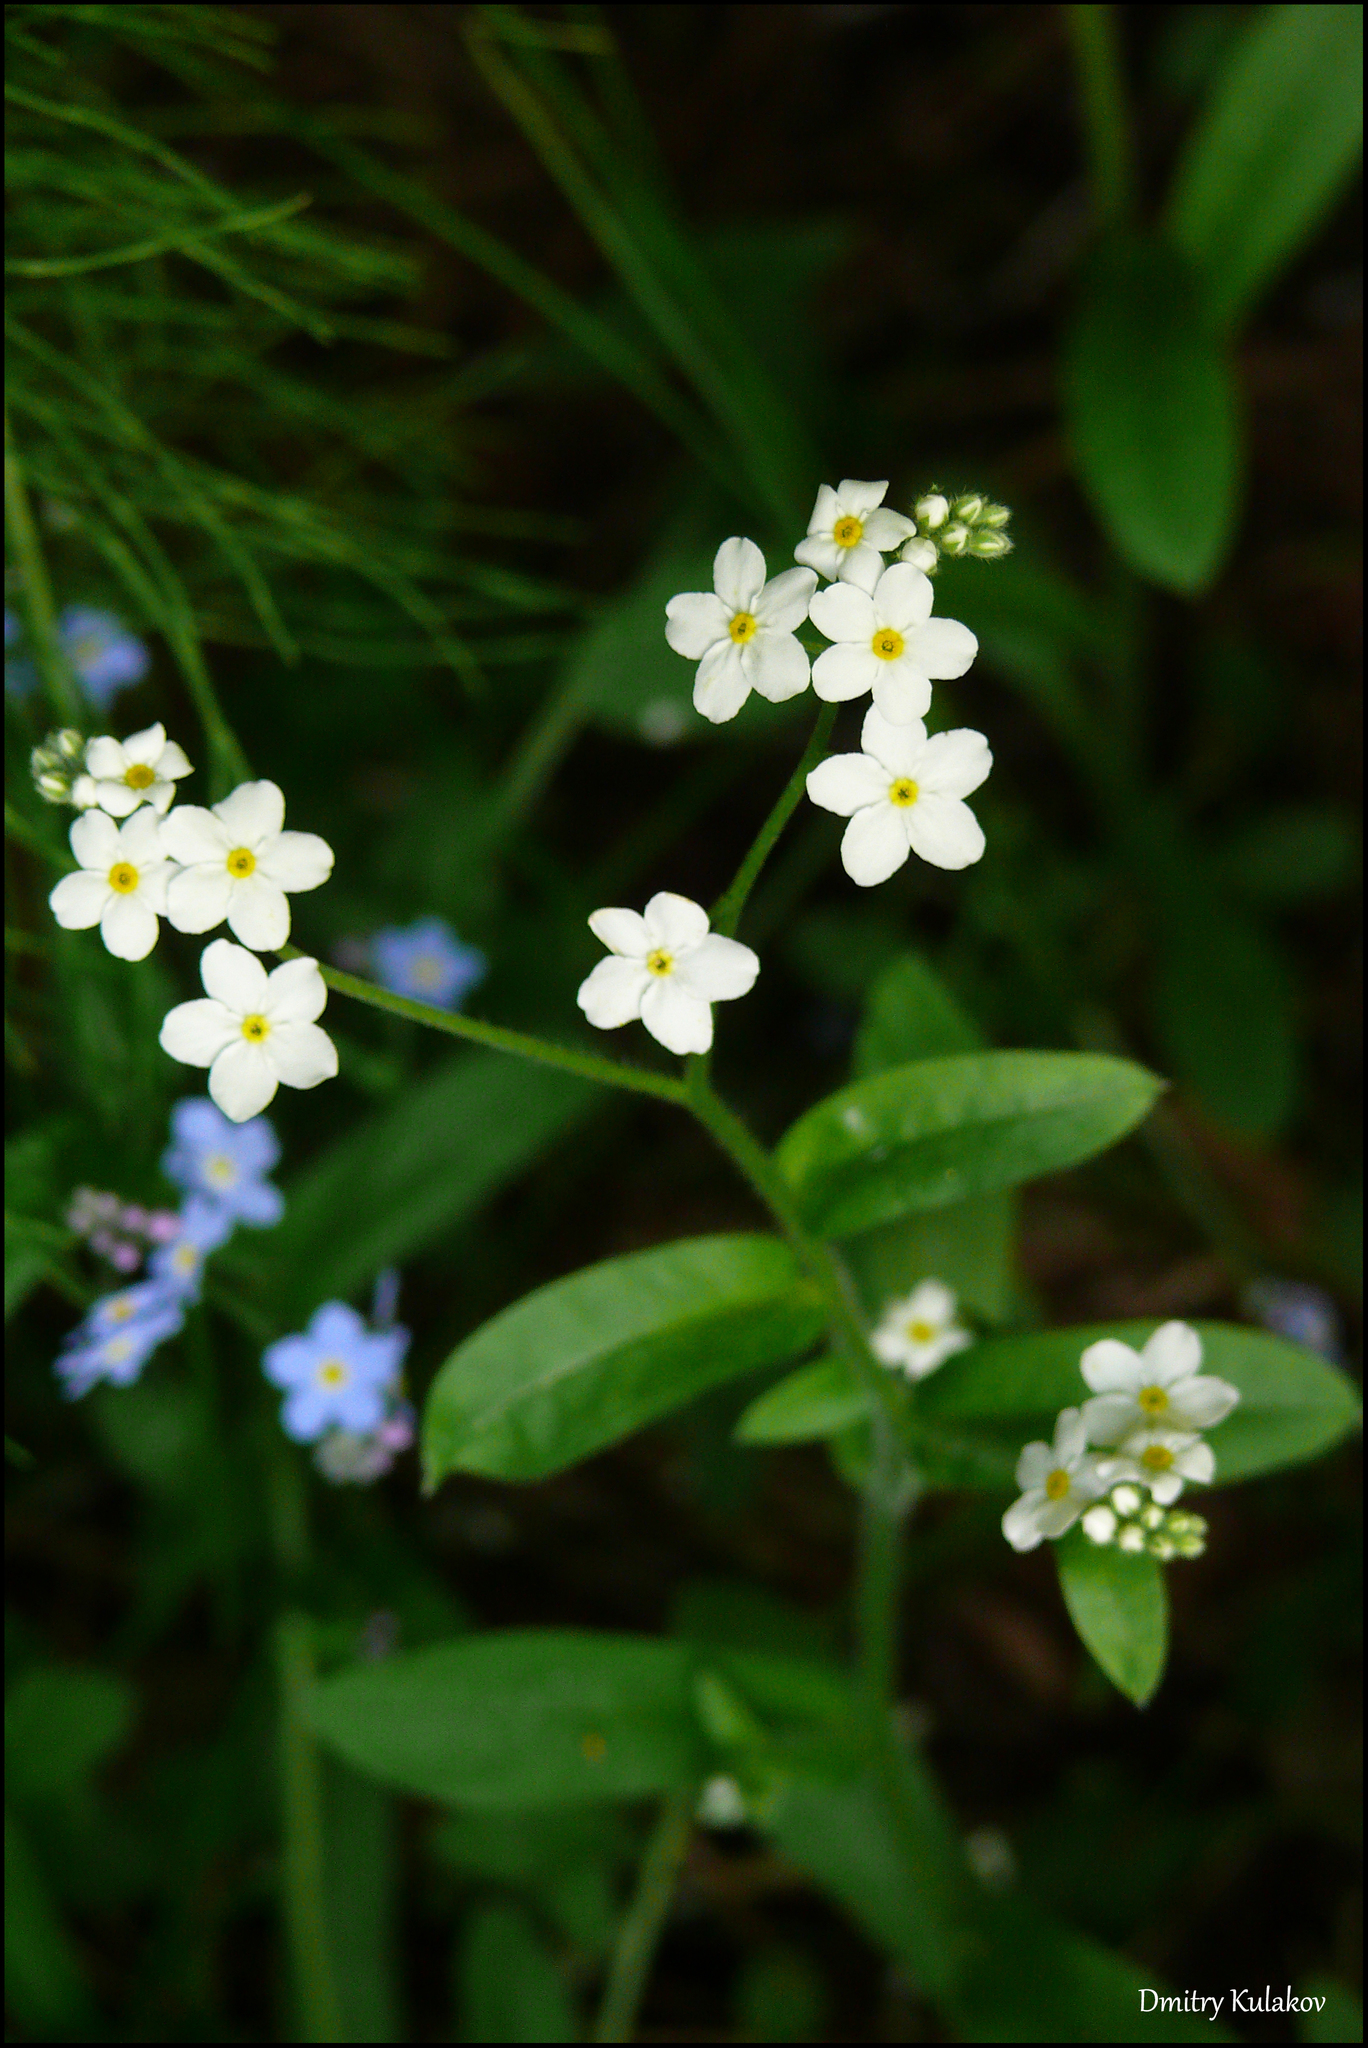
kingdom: Plantae
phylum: Tracheophyta
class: Magnoliopsida
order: Boraginales
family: Boraginaceae
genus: Myosotis
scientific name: Myosotis scorpioides
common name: Water forget-me-not
